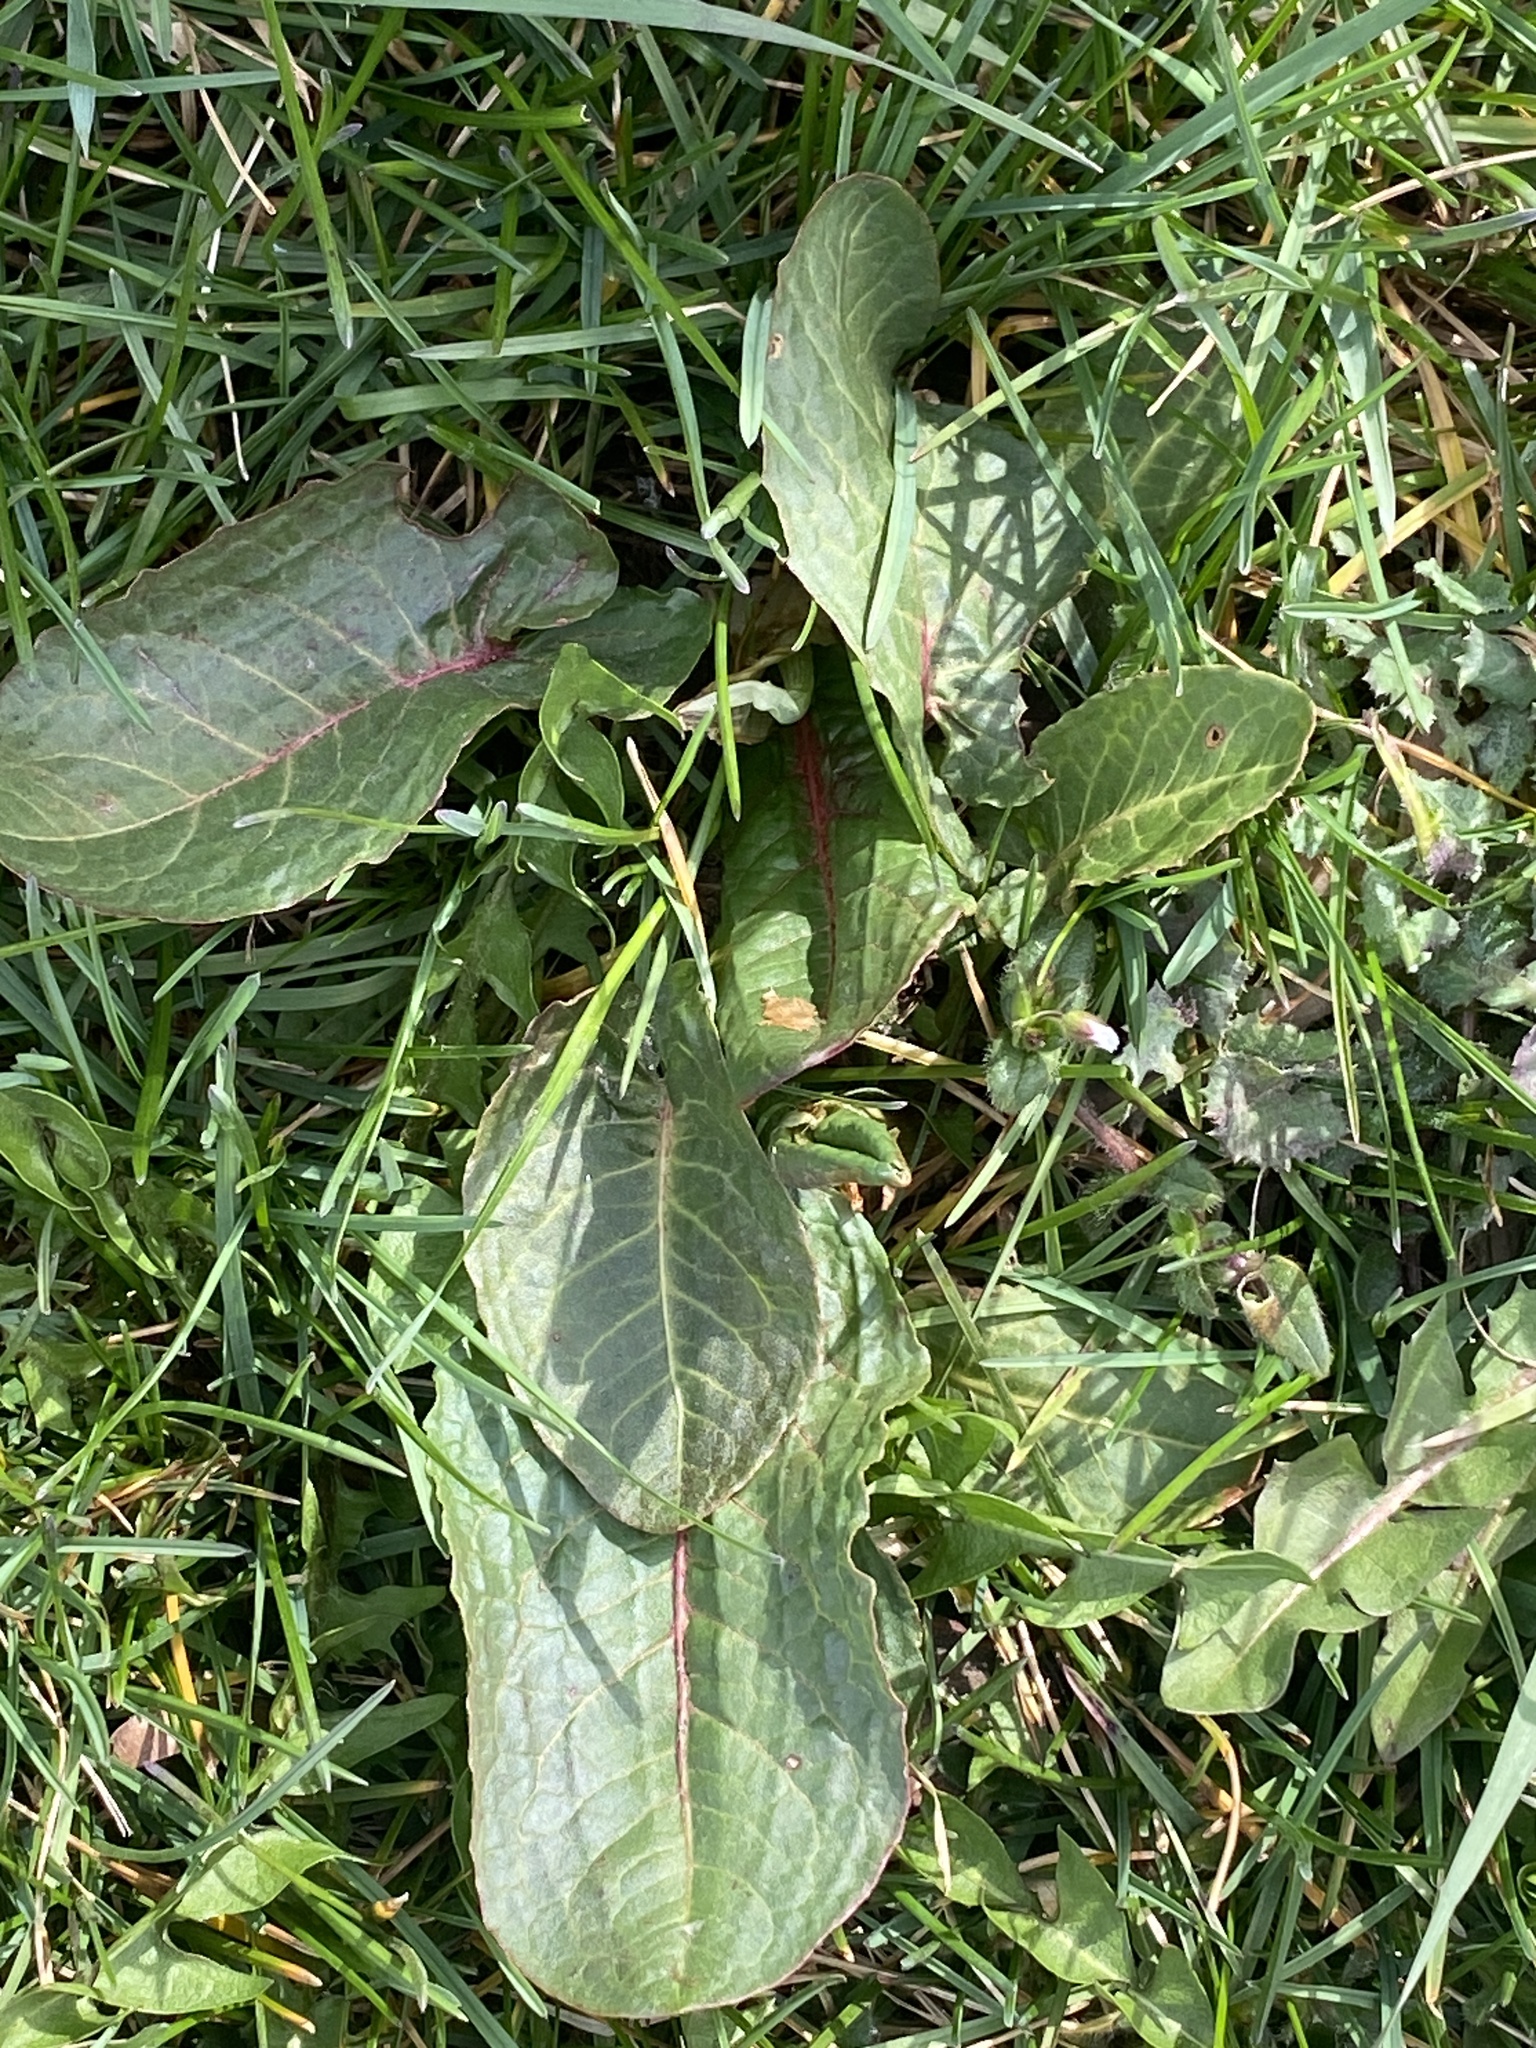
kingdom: Plantae
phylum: Tracheophyta
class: Magnoliopsida
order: Caryophyllales
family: Polygonaceae
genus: Rumex
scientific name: Rumex obtusifolius
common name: Bitter dock
